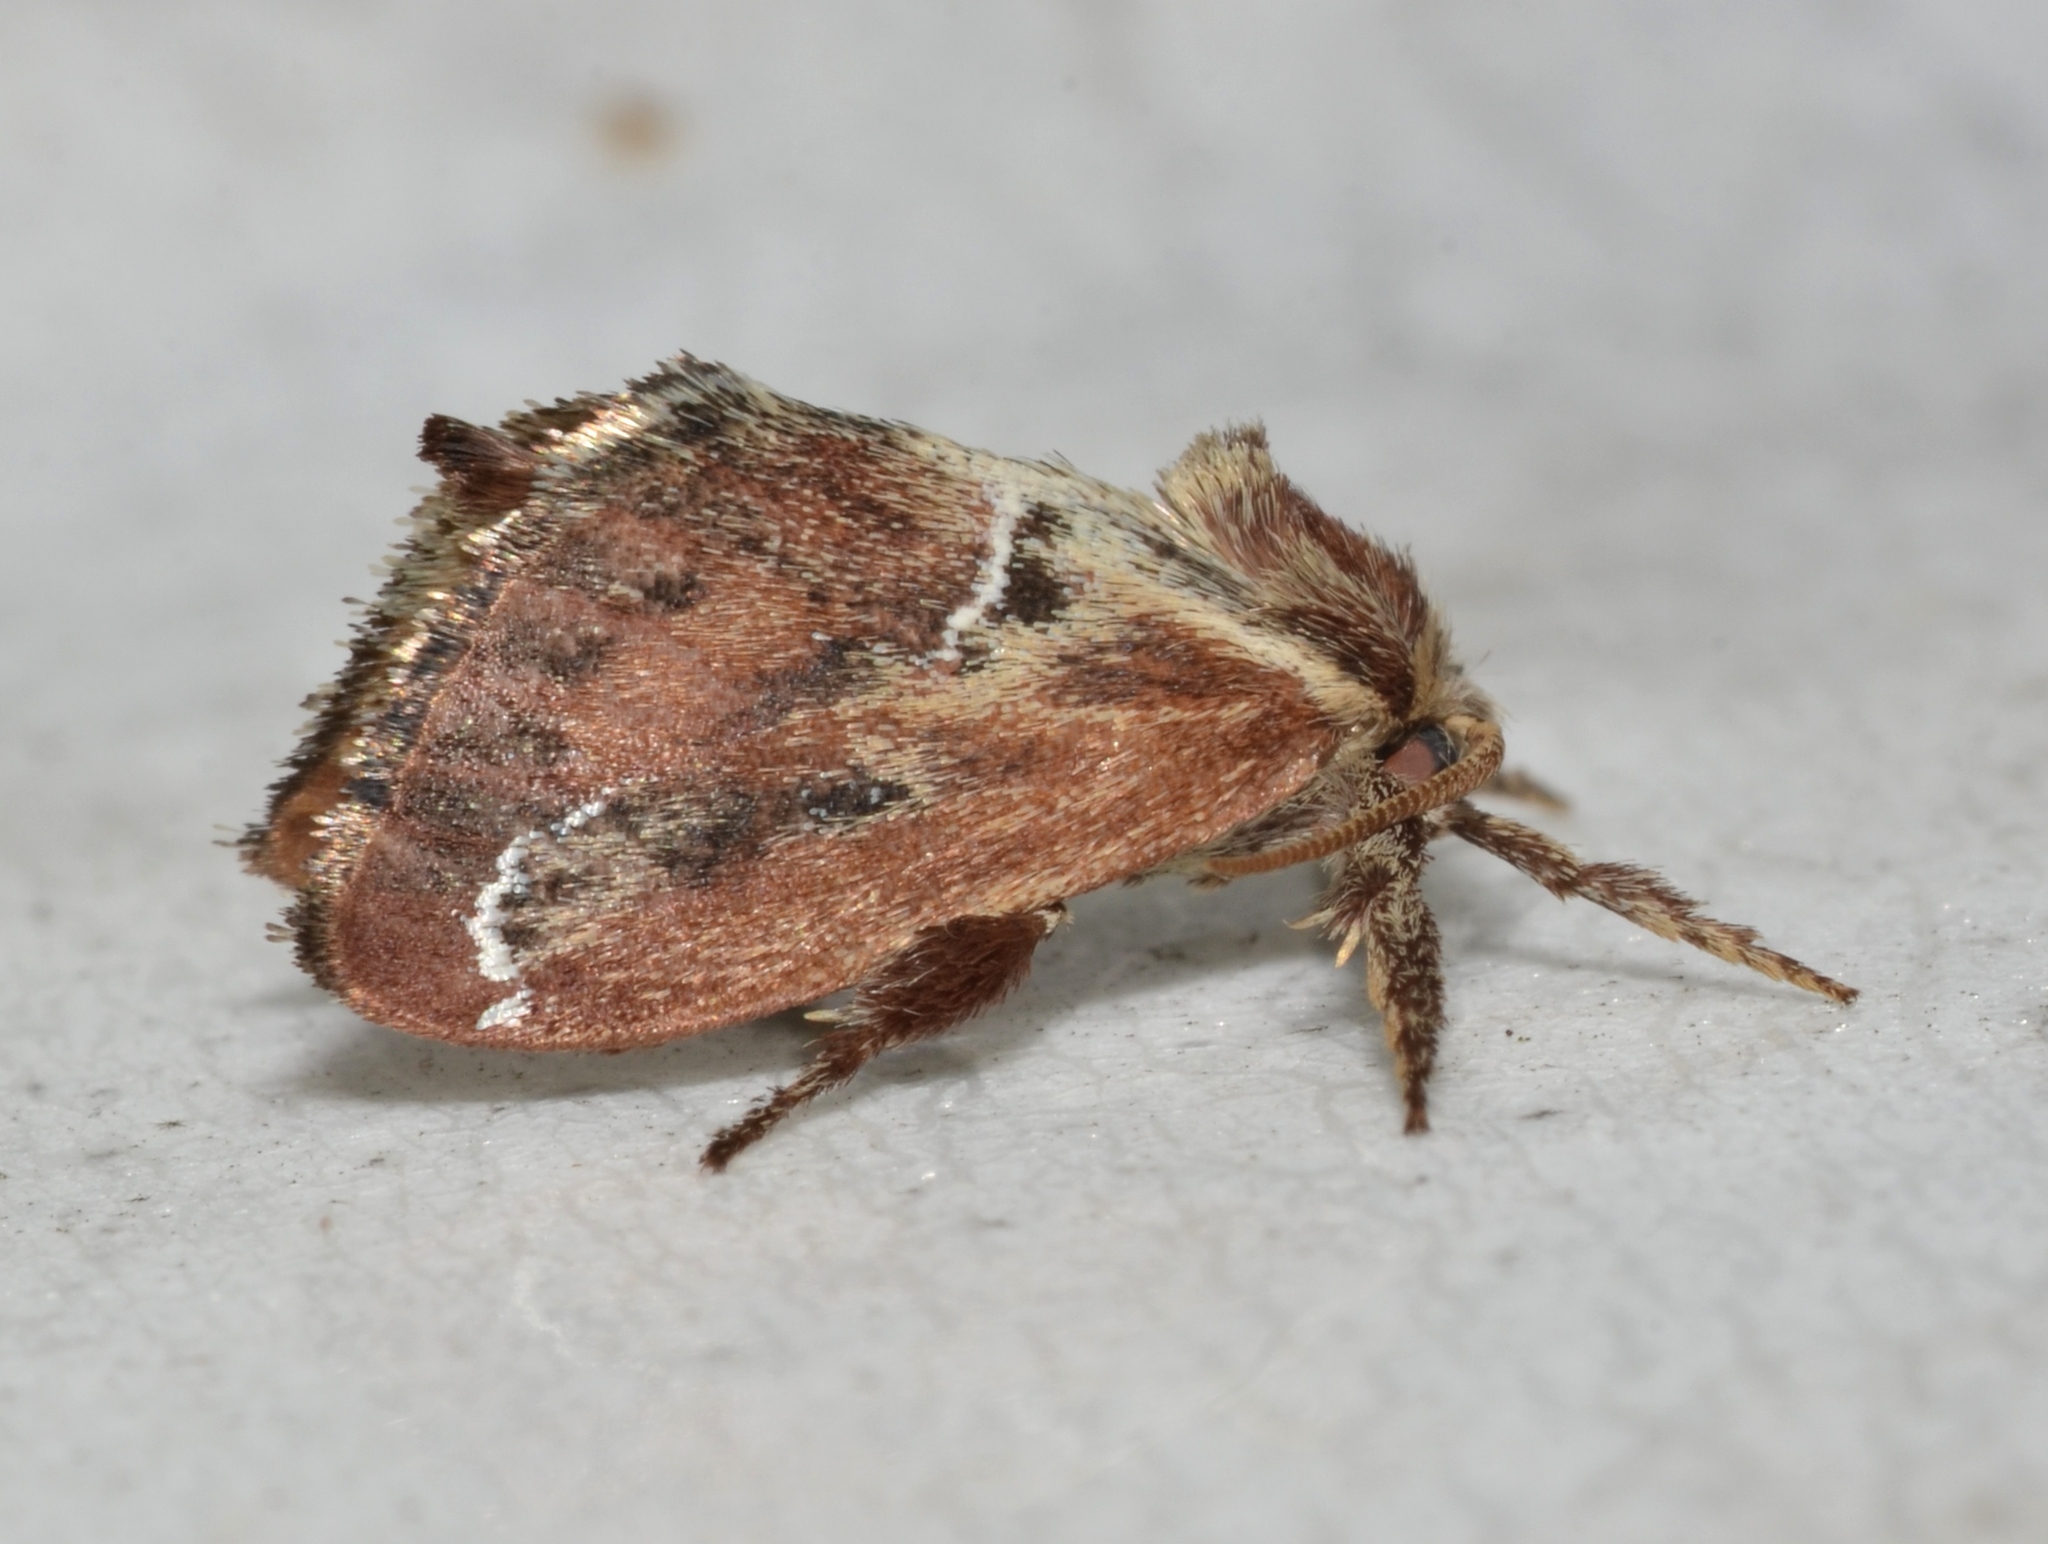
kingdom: Animalia
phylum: Arthropoda
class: Insecta
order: Lepidoptera
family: Limacodidae
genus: Adoneta
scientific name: Adoneta spinuloides
